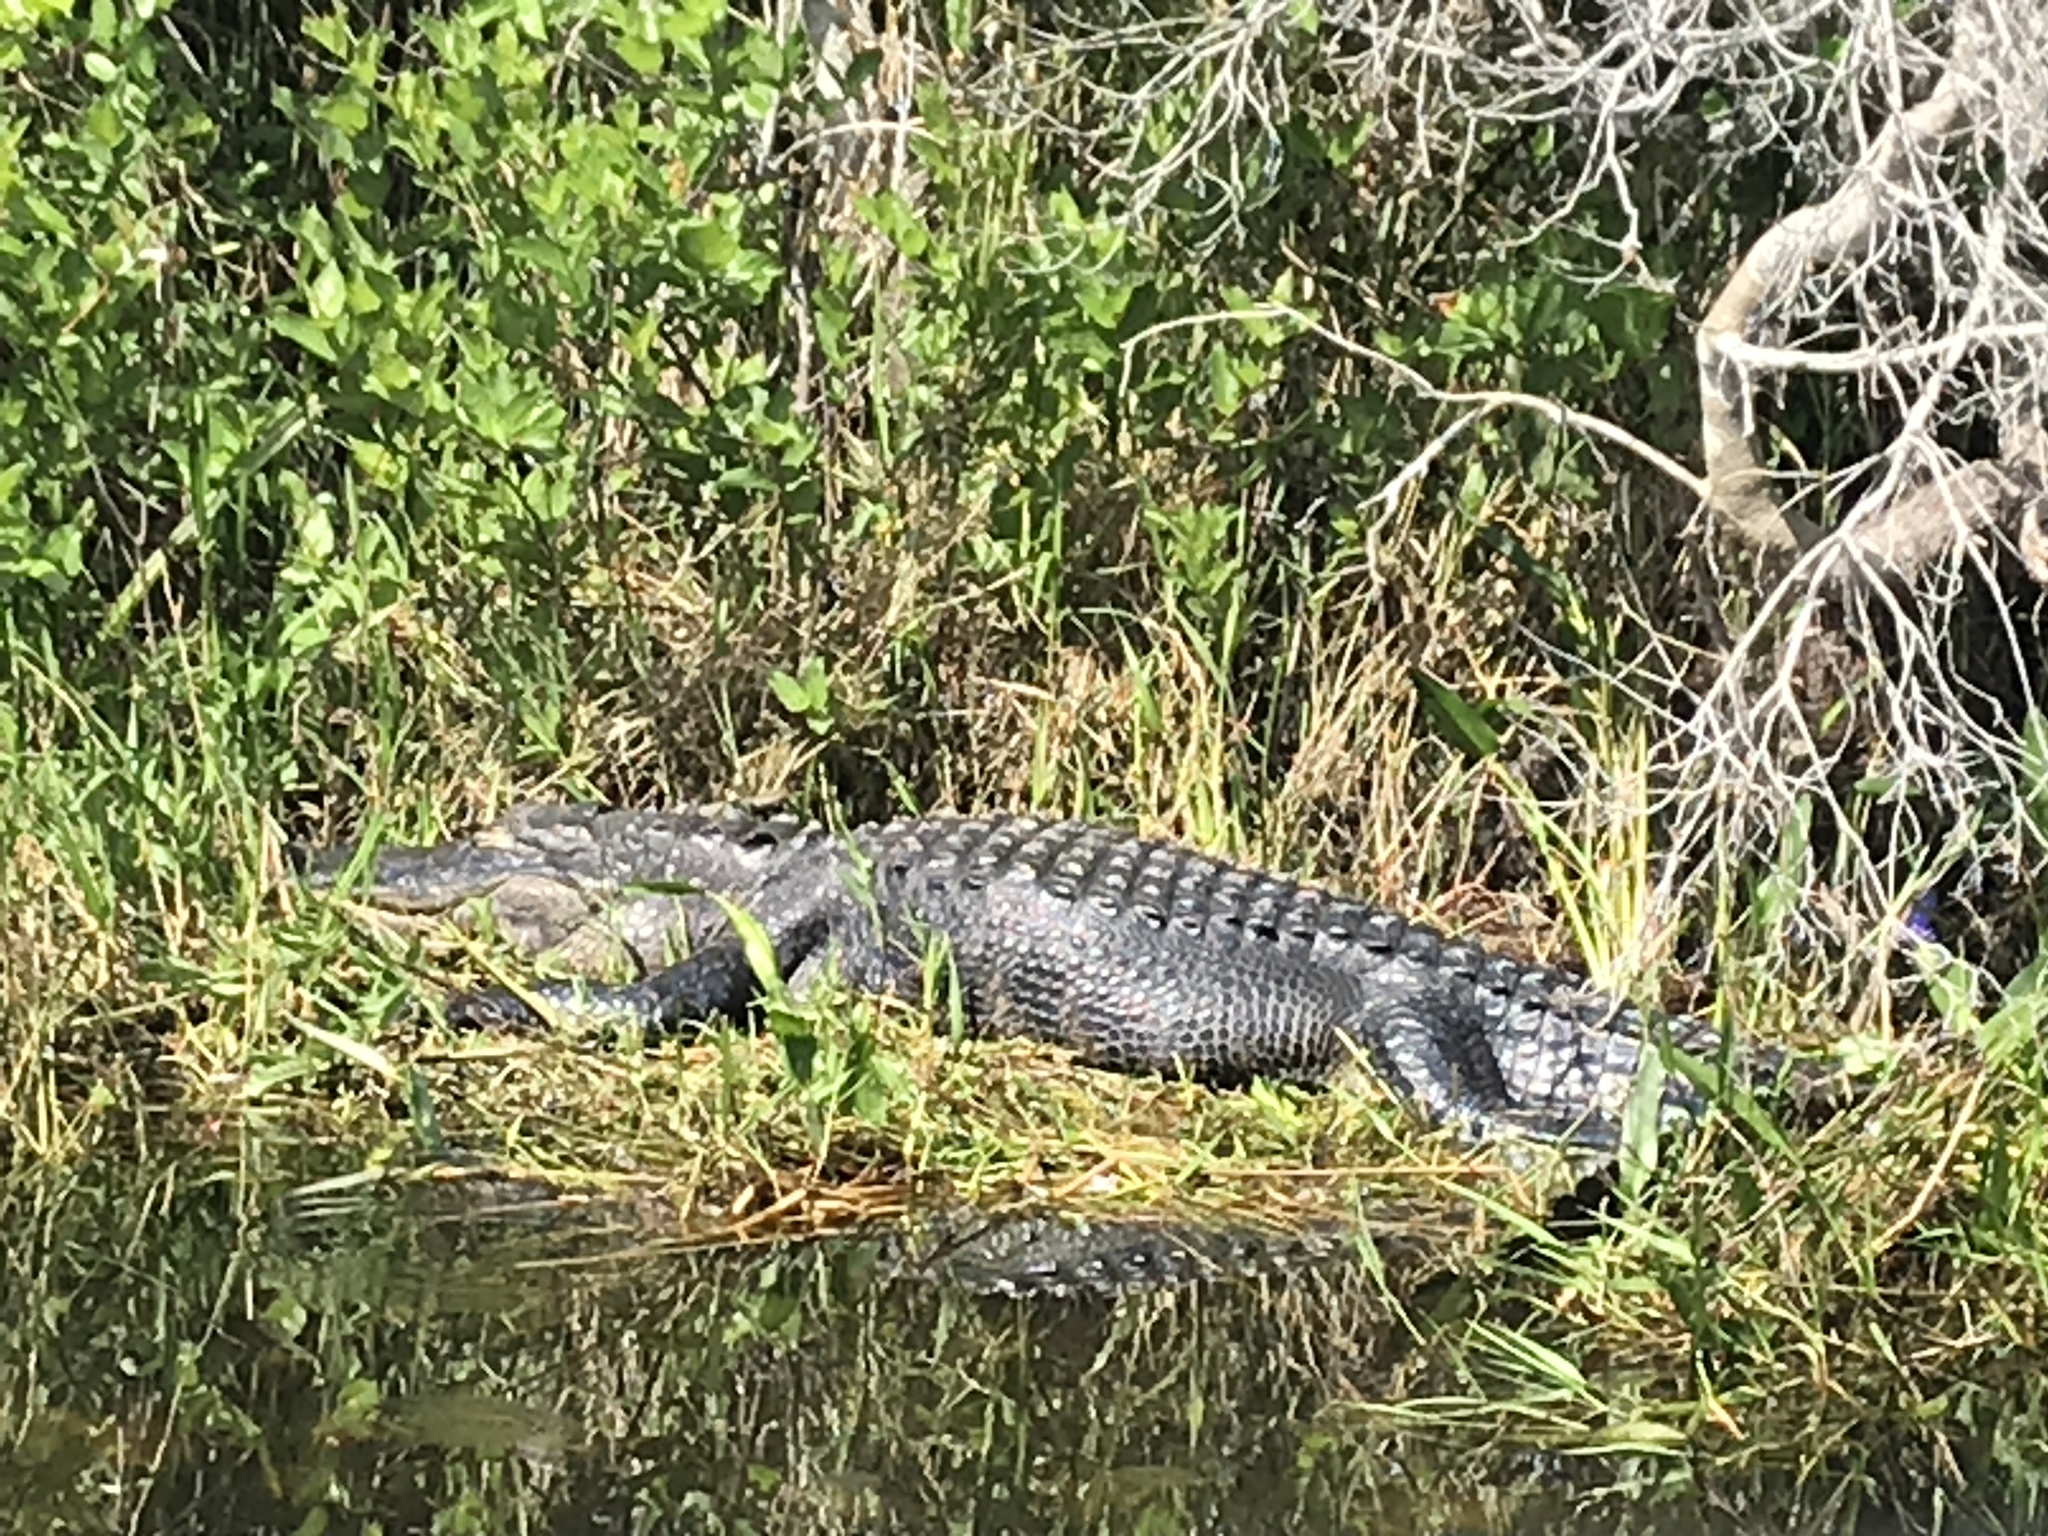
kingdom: Animalia
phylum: Chordata
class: Crocodylia
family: Alligatoridae
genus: Alligator
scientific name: Alligator mississippiensis
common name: American alligator
